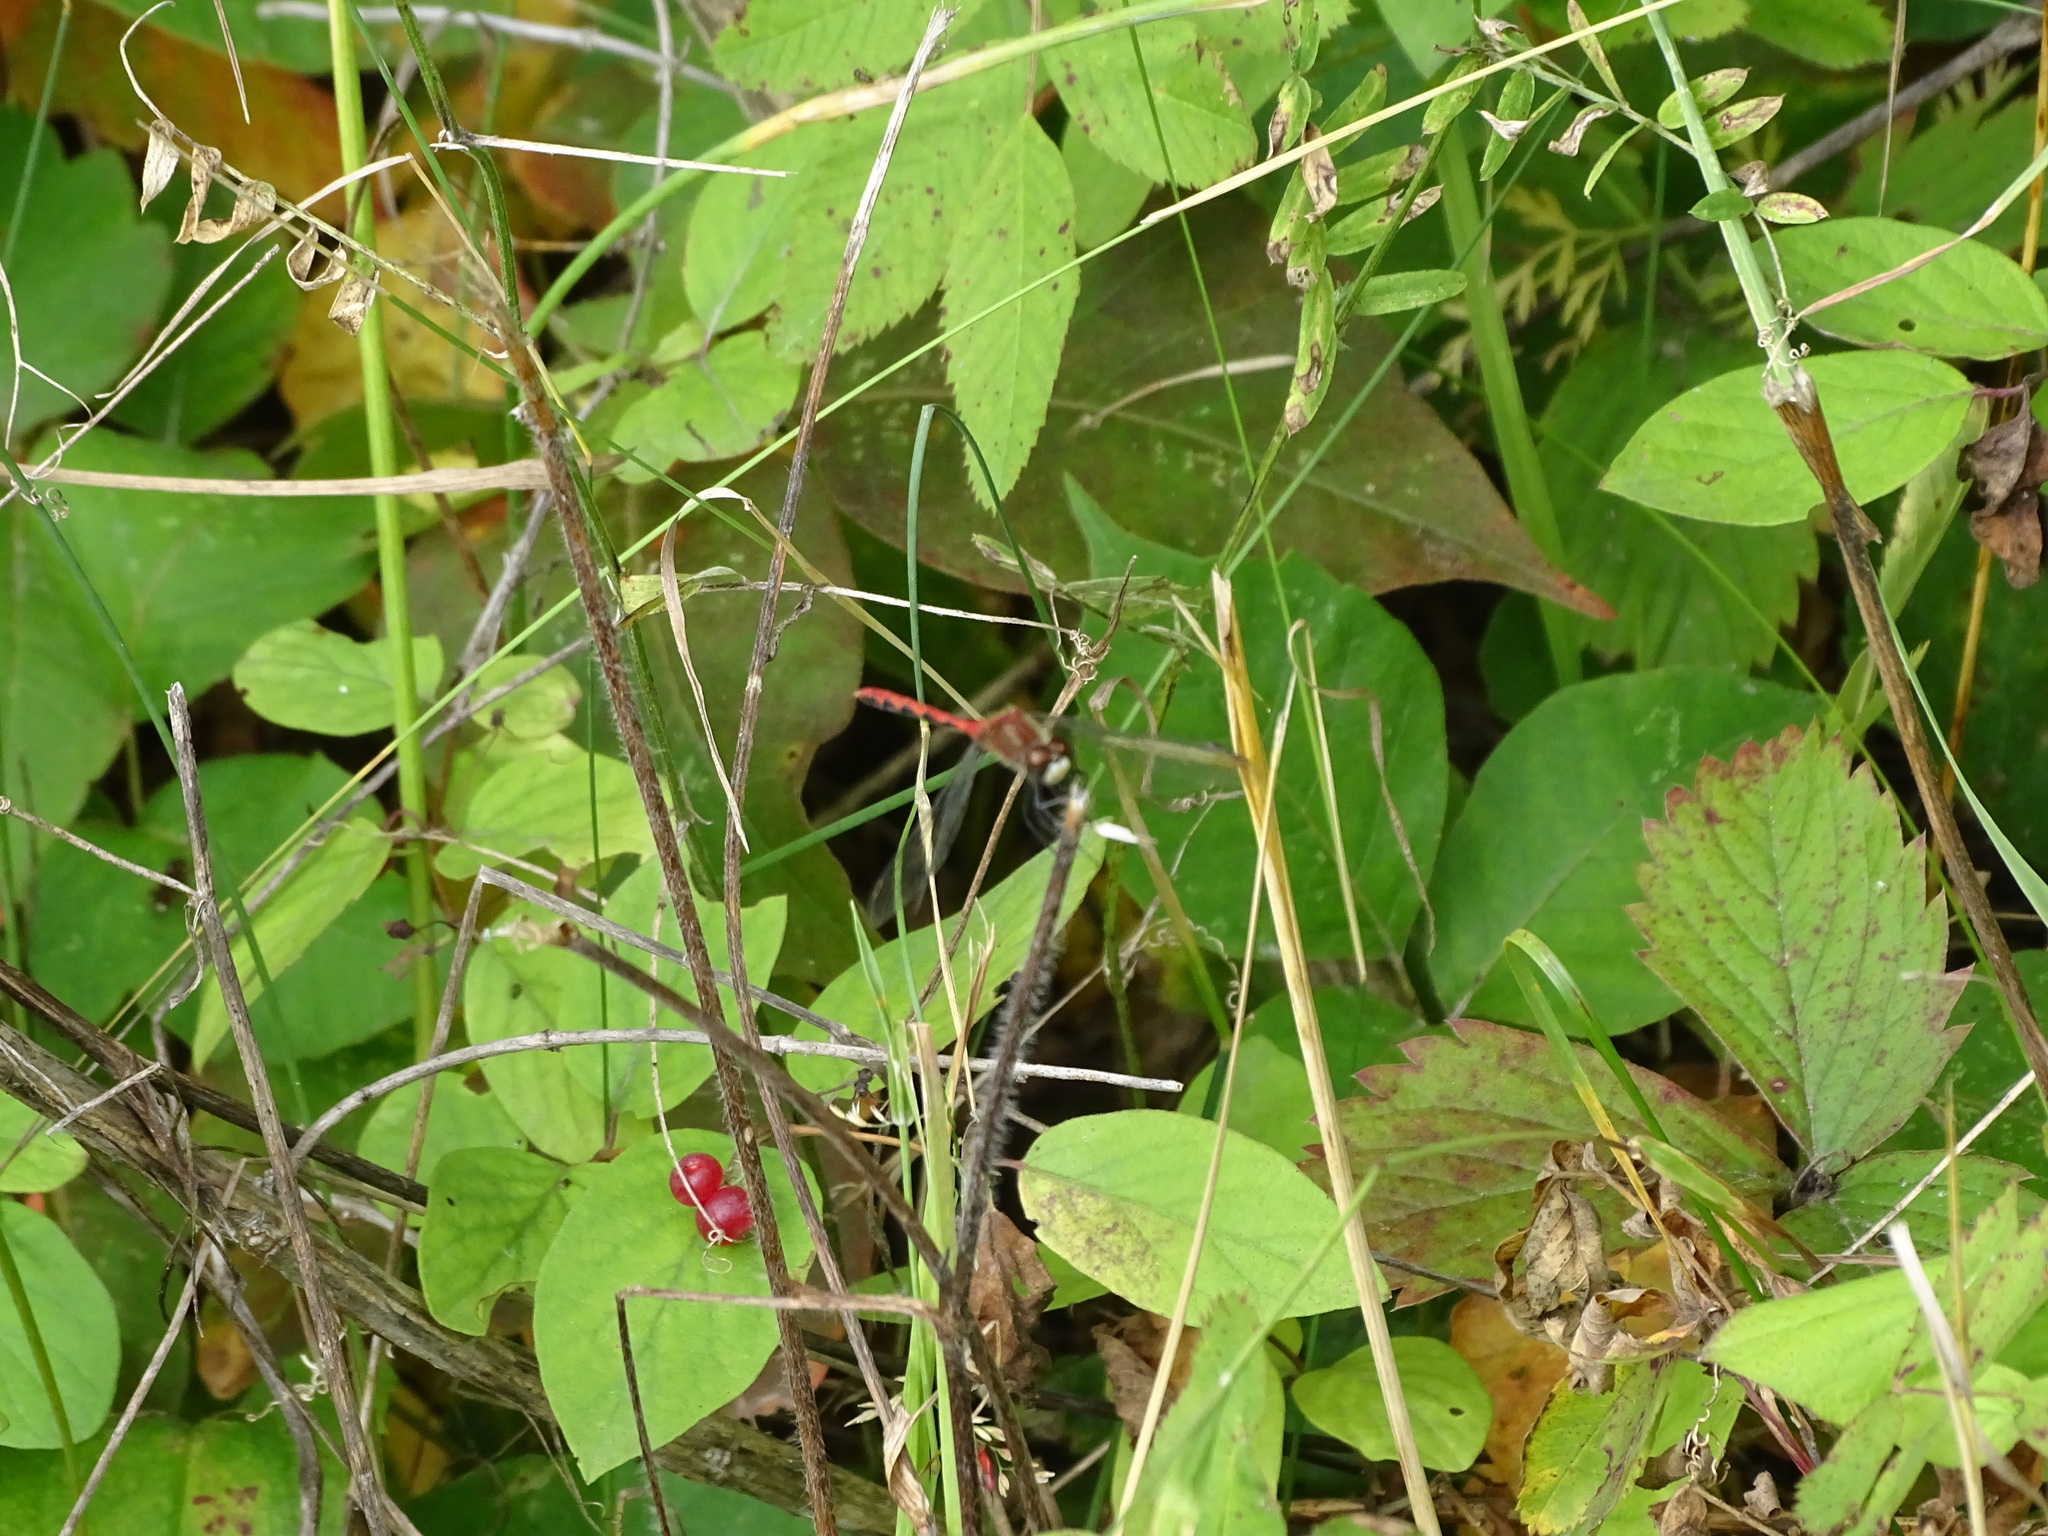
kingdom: Animalia
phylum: Arthropoda
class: Insecta
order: Odonata
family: Libellulidae
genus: Sympetrum
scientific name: Sympetrum obtrusum
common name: White-faced meadowhawk
